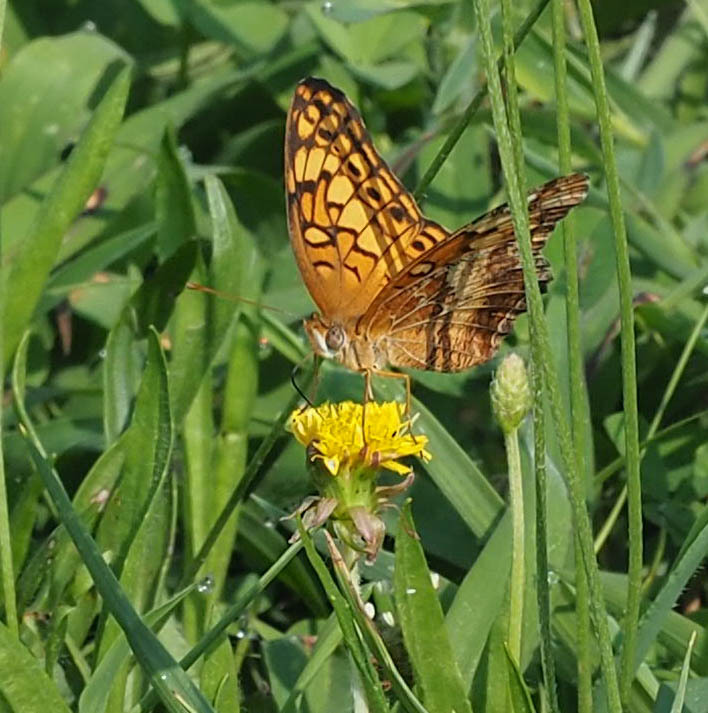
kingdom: Animalia
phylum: Arthropoda
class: Insecta
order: Lepidoptera
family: Nymphalidae
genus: Euptoieta
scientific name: Euptoieta claudia
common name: Variegated fritillary
